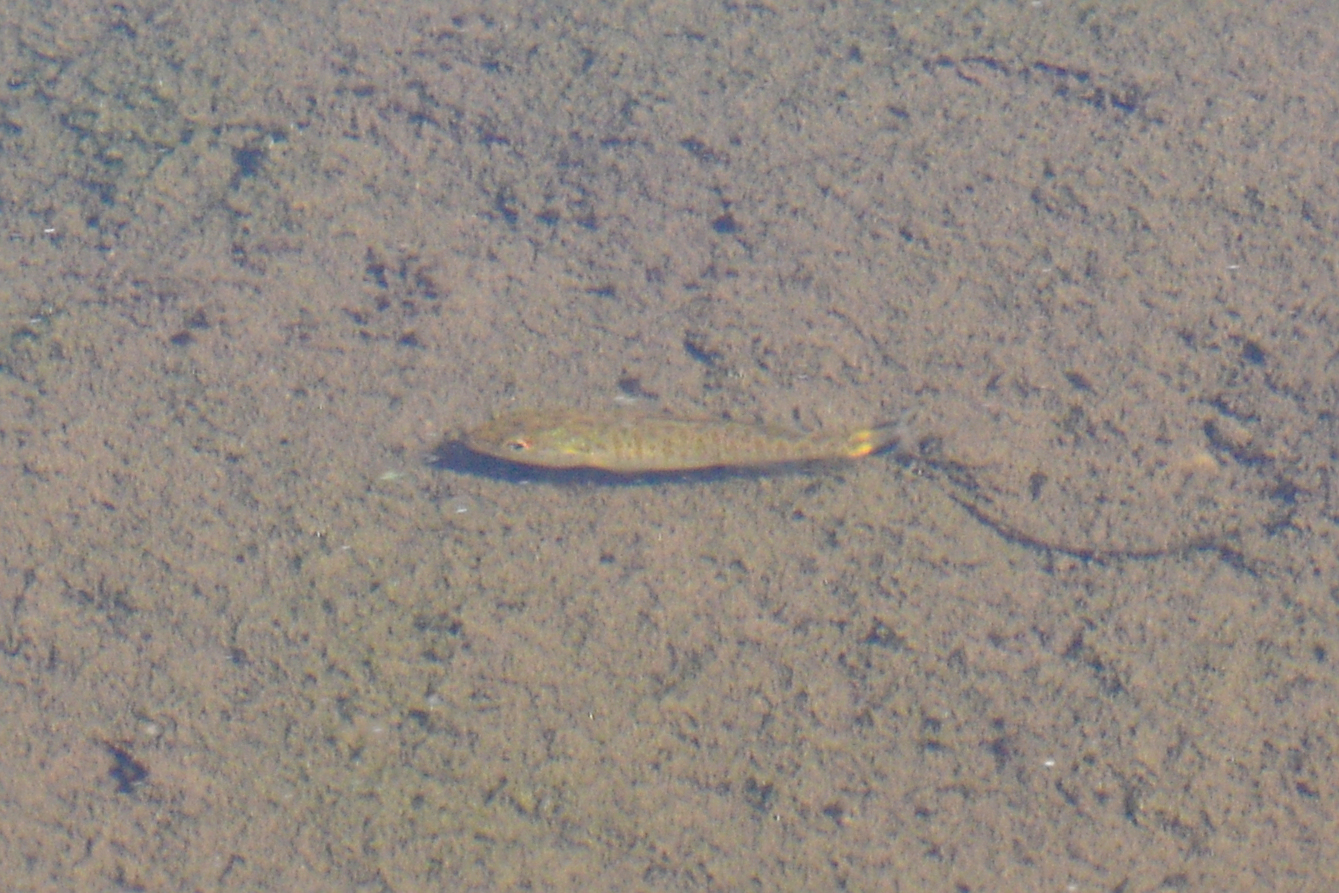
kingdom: Animalia
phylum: Chordata
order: Perciformes
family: Centrarchidae
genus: Micropterus
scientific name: Micropterus dolomieu
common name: Smallmouth bass
